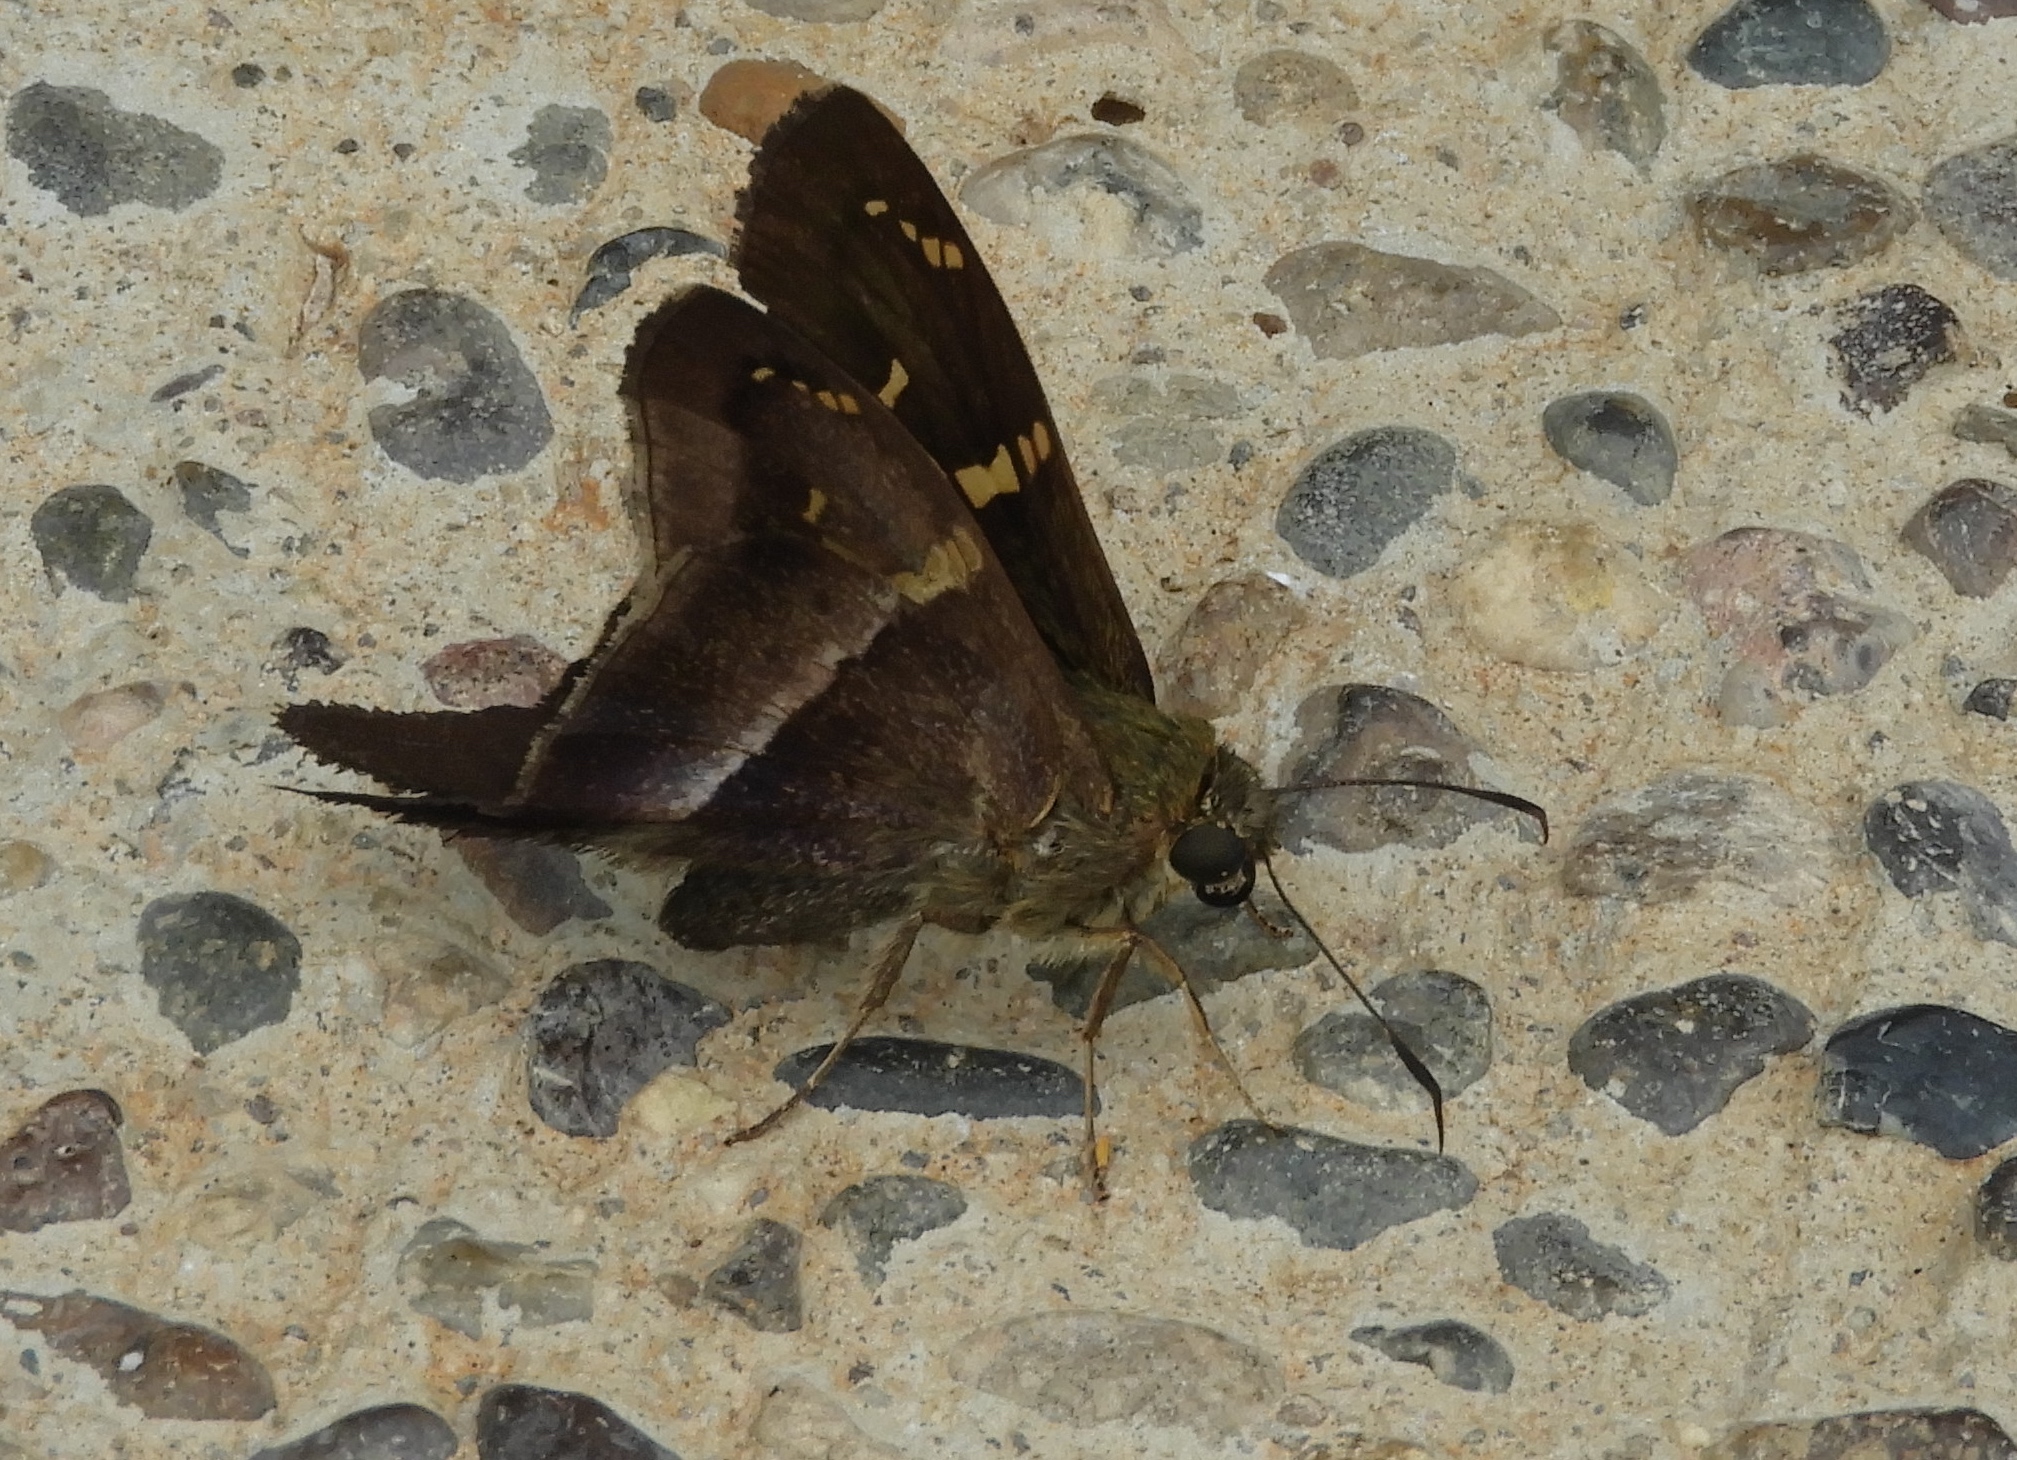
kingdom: Animalia
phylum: Arthropoda
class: Insecta
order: Lepidoptera
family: Hesperiidae
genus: Aguna
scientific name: Aguna metophis
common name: Tailed aguna
